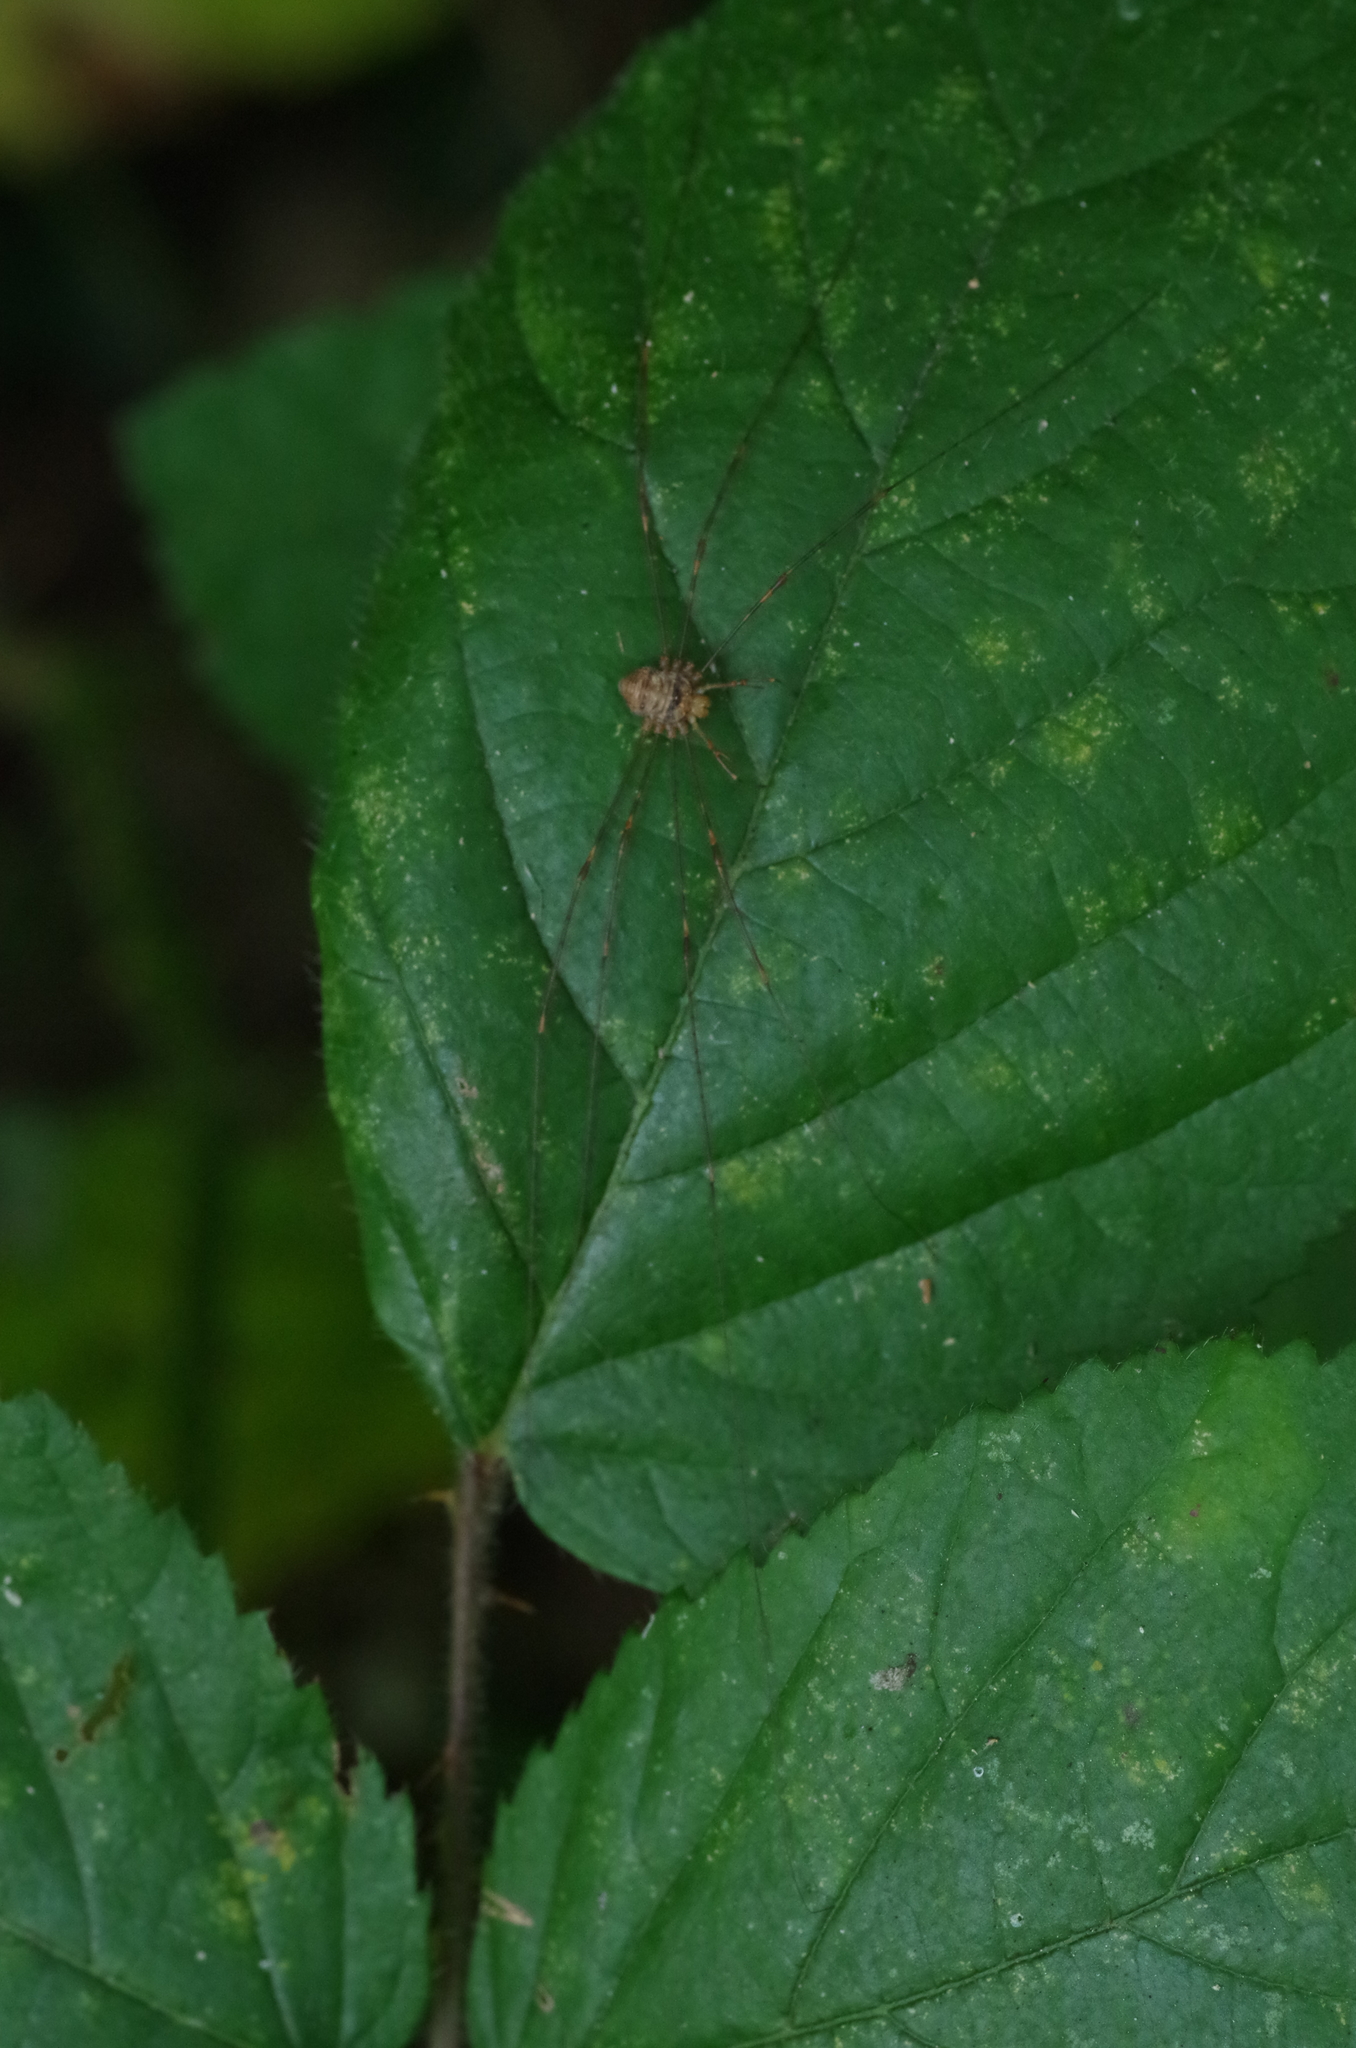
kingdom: Animalia
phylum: Arthropoda
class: Arachnida
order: Opiliones
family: Phalangiidae
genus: Dicranopalpus
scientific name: Dicranopalpus ramosus
